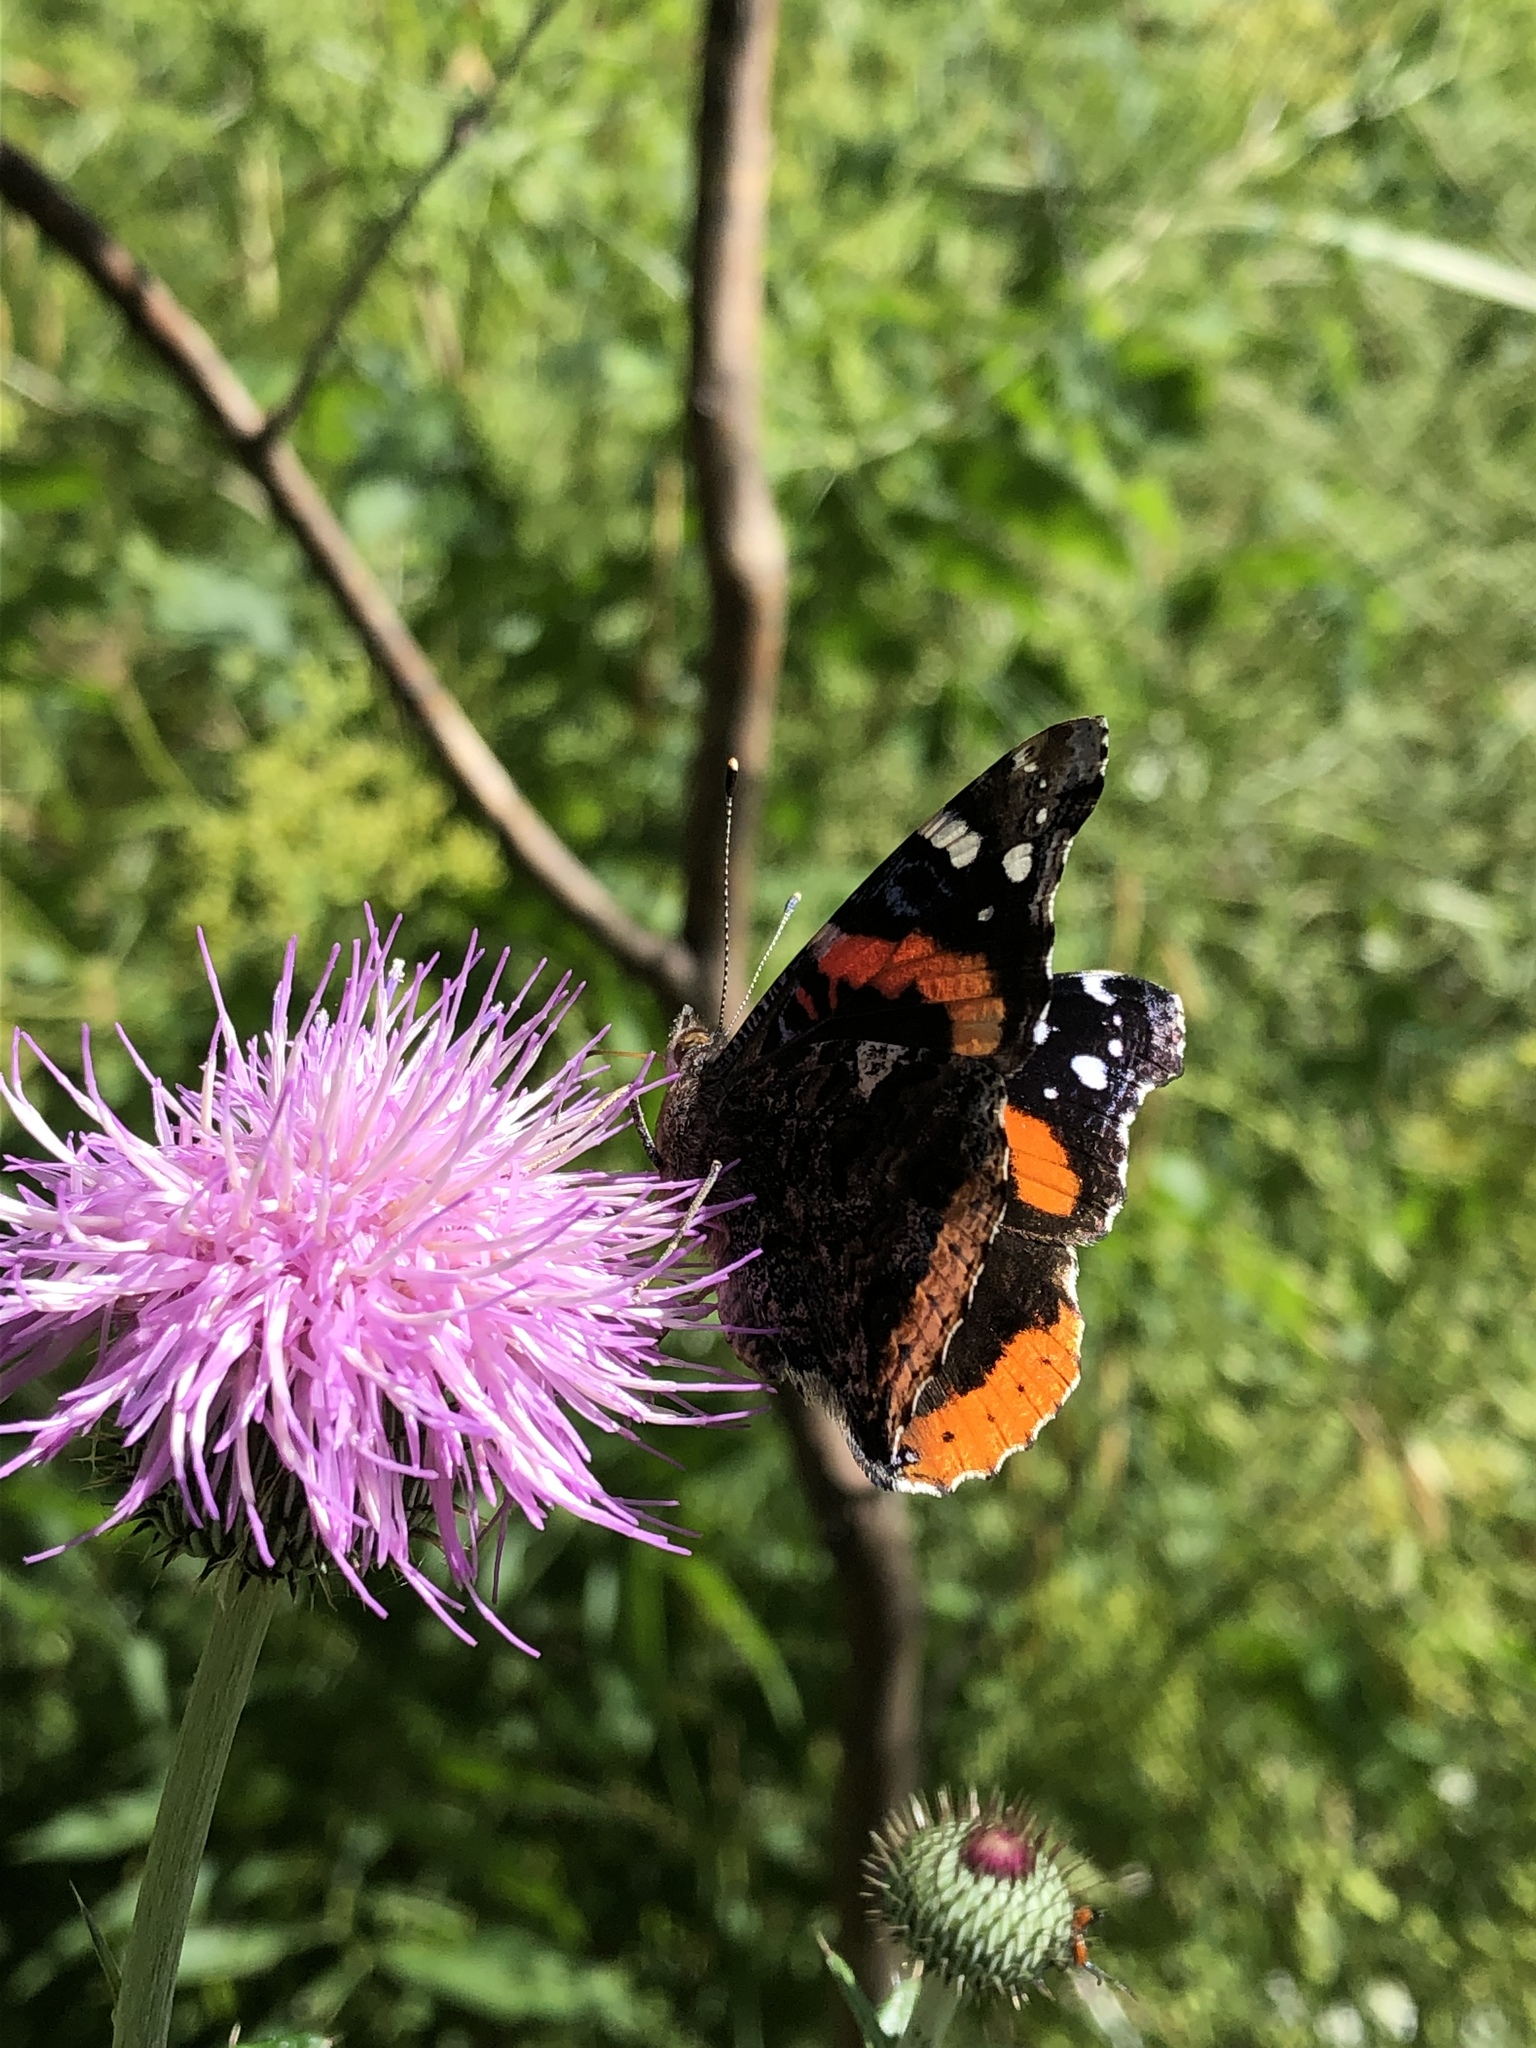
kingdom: Animalia
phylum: Arthropoda
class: Insecta
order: Lepidoptera
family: Nymphalidae
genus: Vanessa
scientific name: Vanessa atalanta
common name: Red admiral
